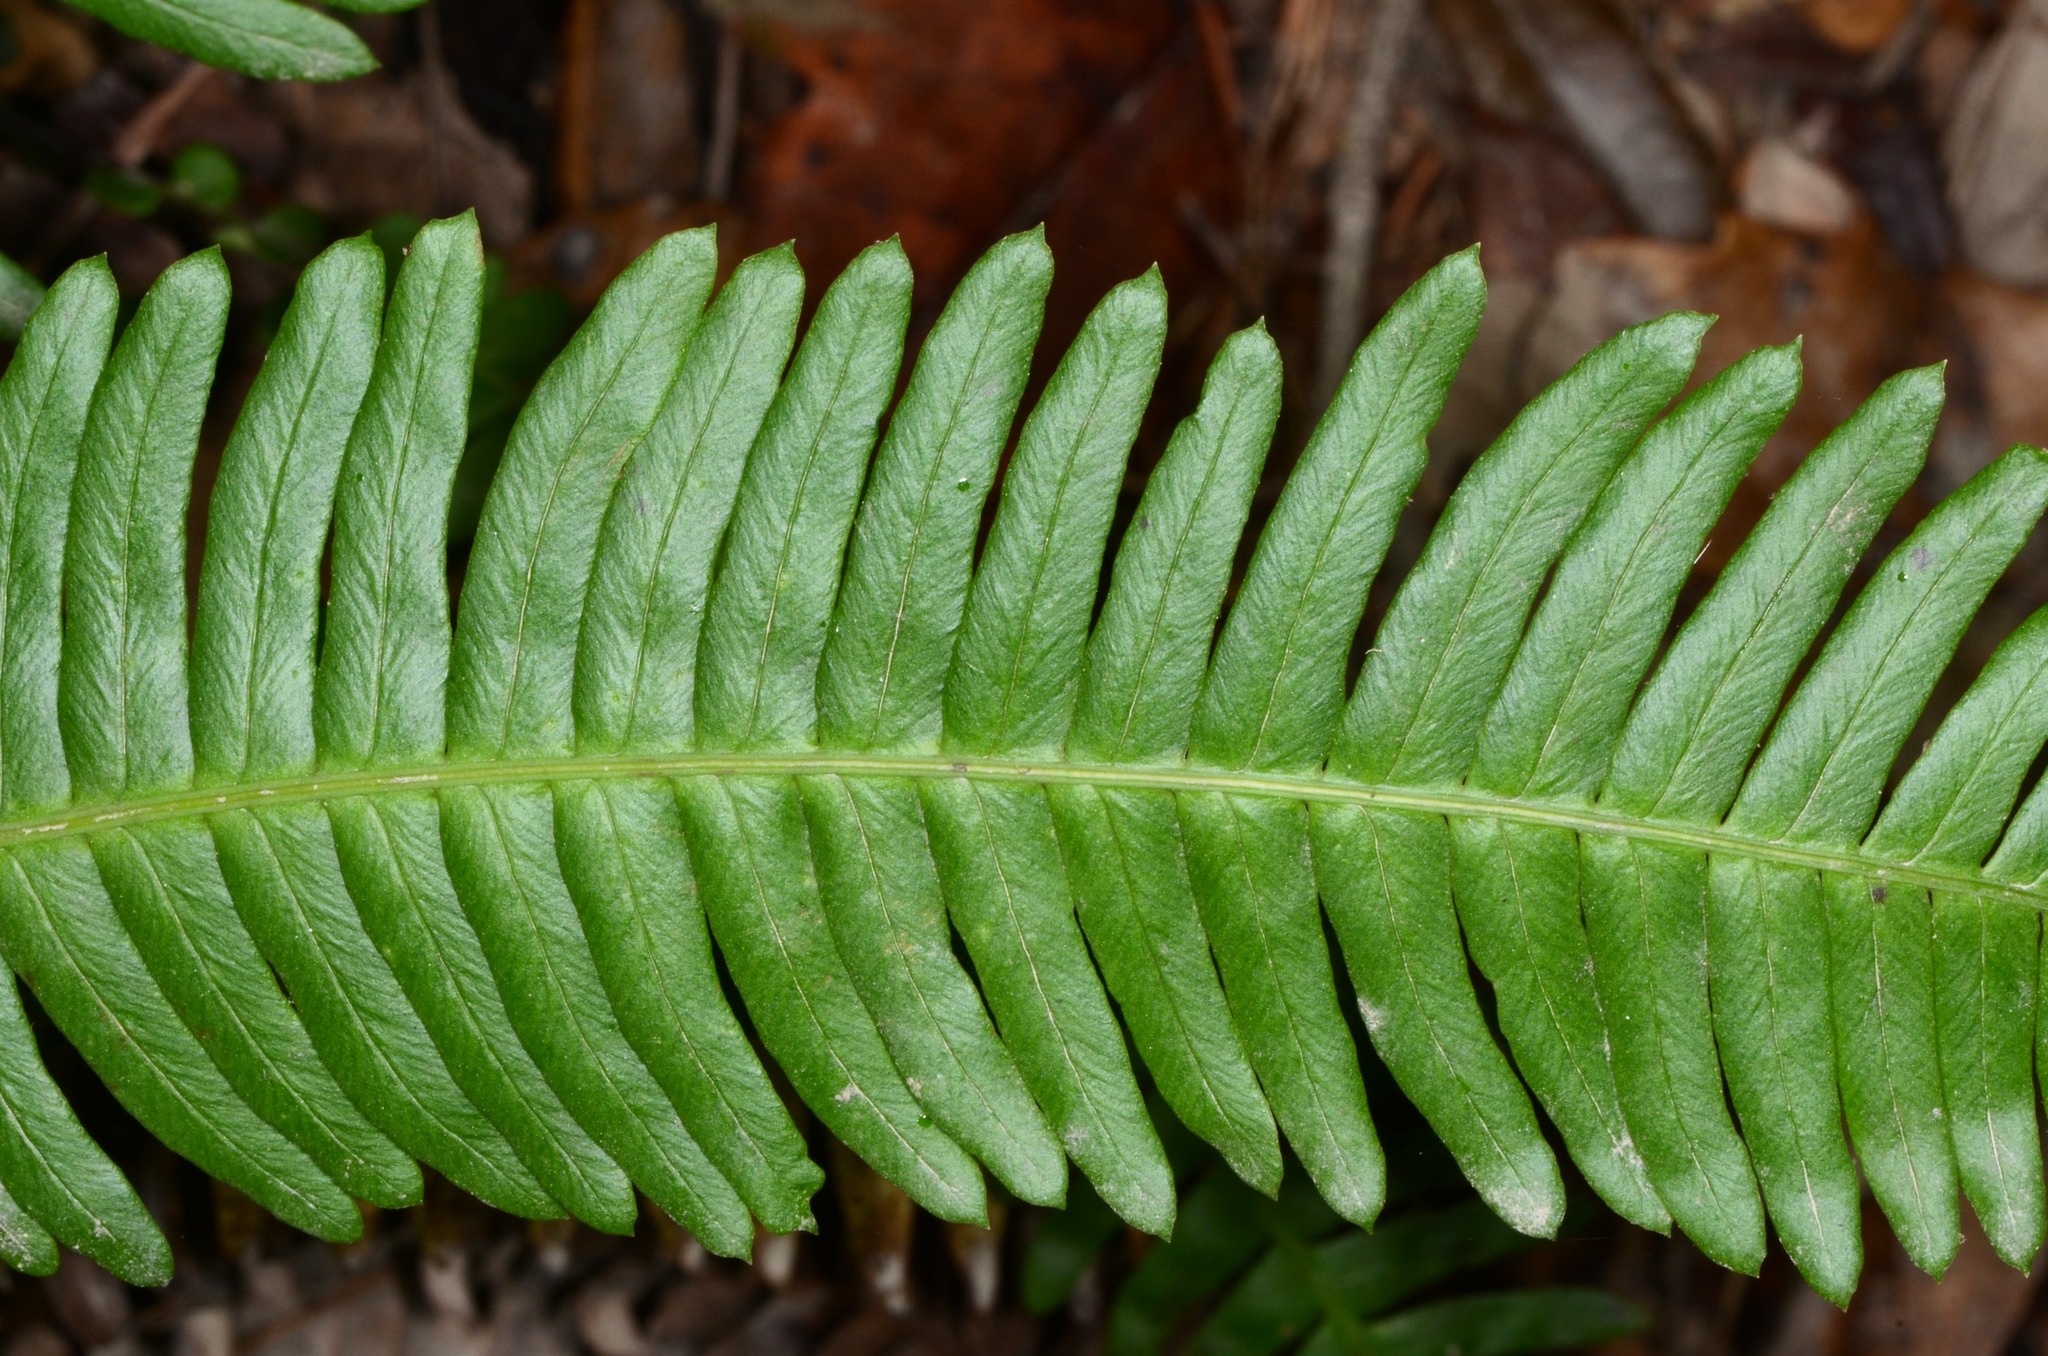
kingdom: Plantae
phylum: Tracheophyta
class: Polypodiopsida
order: Polypodiales
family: Blechnaceae
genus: Struthiopteris
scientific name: Struthiopteris spicant
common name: Deer fern
